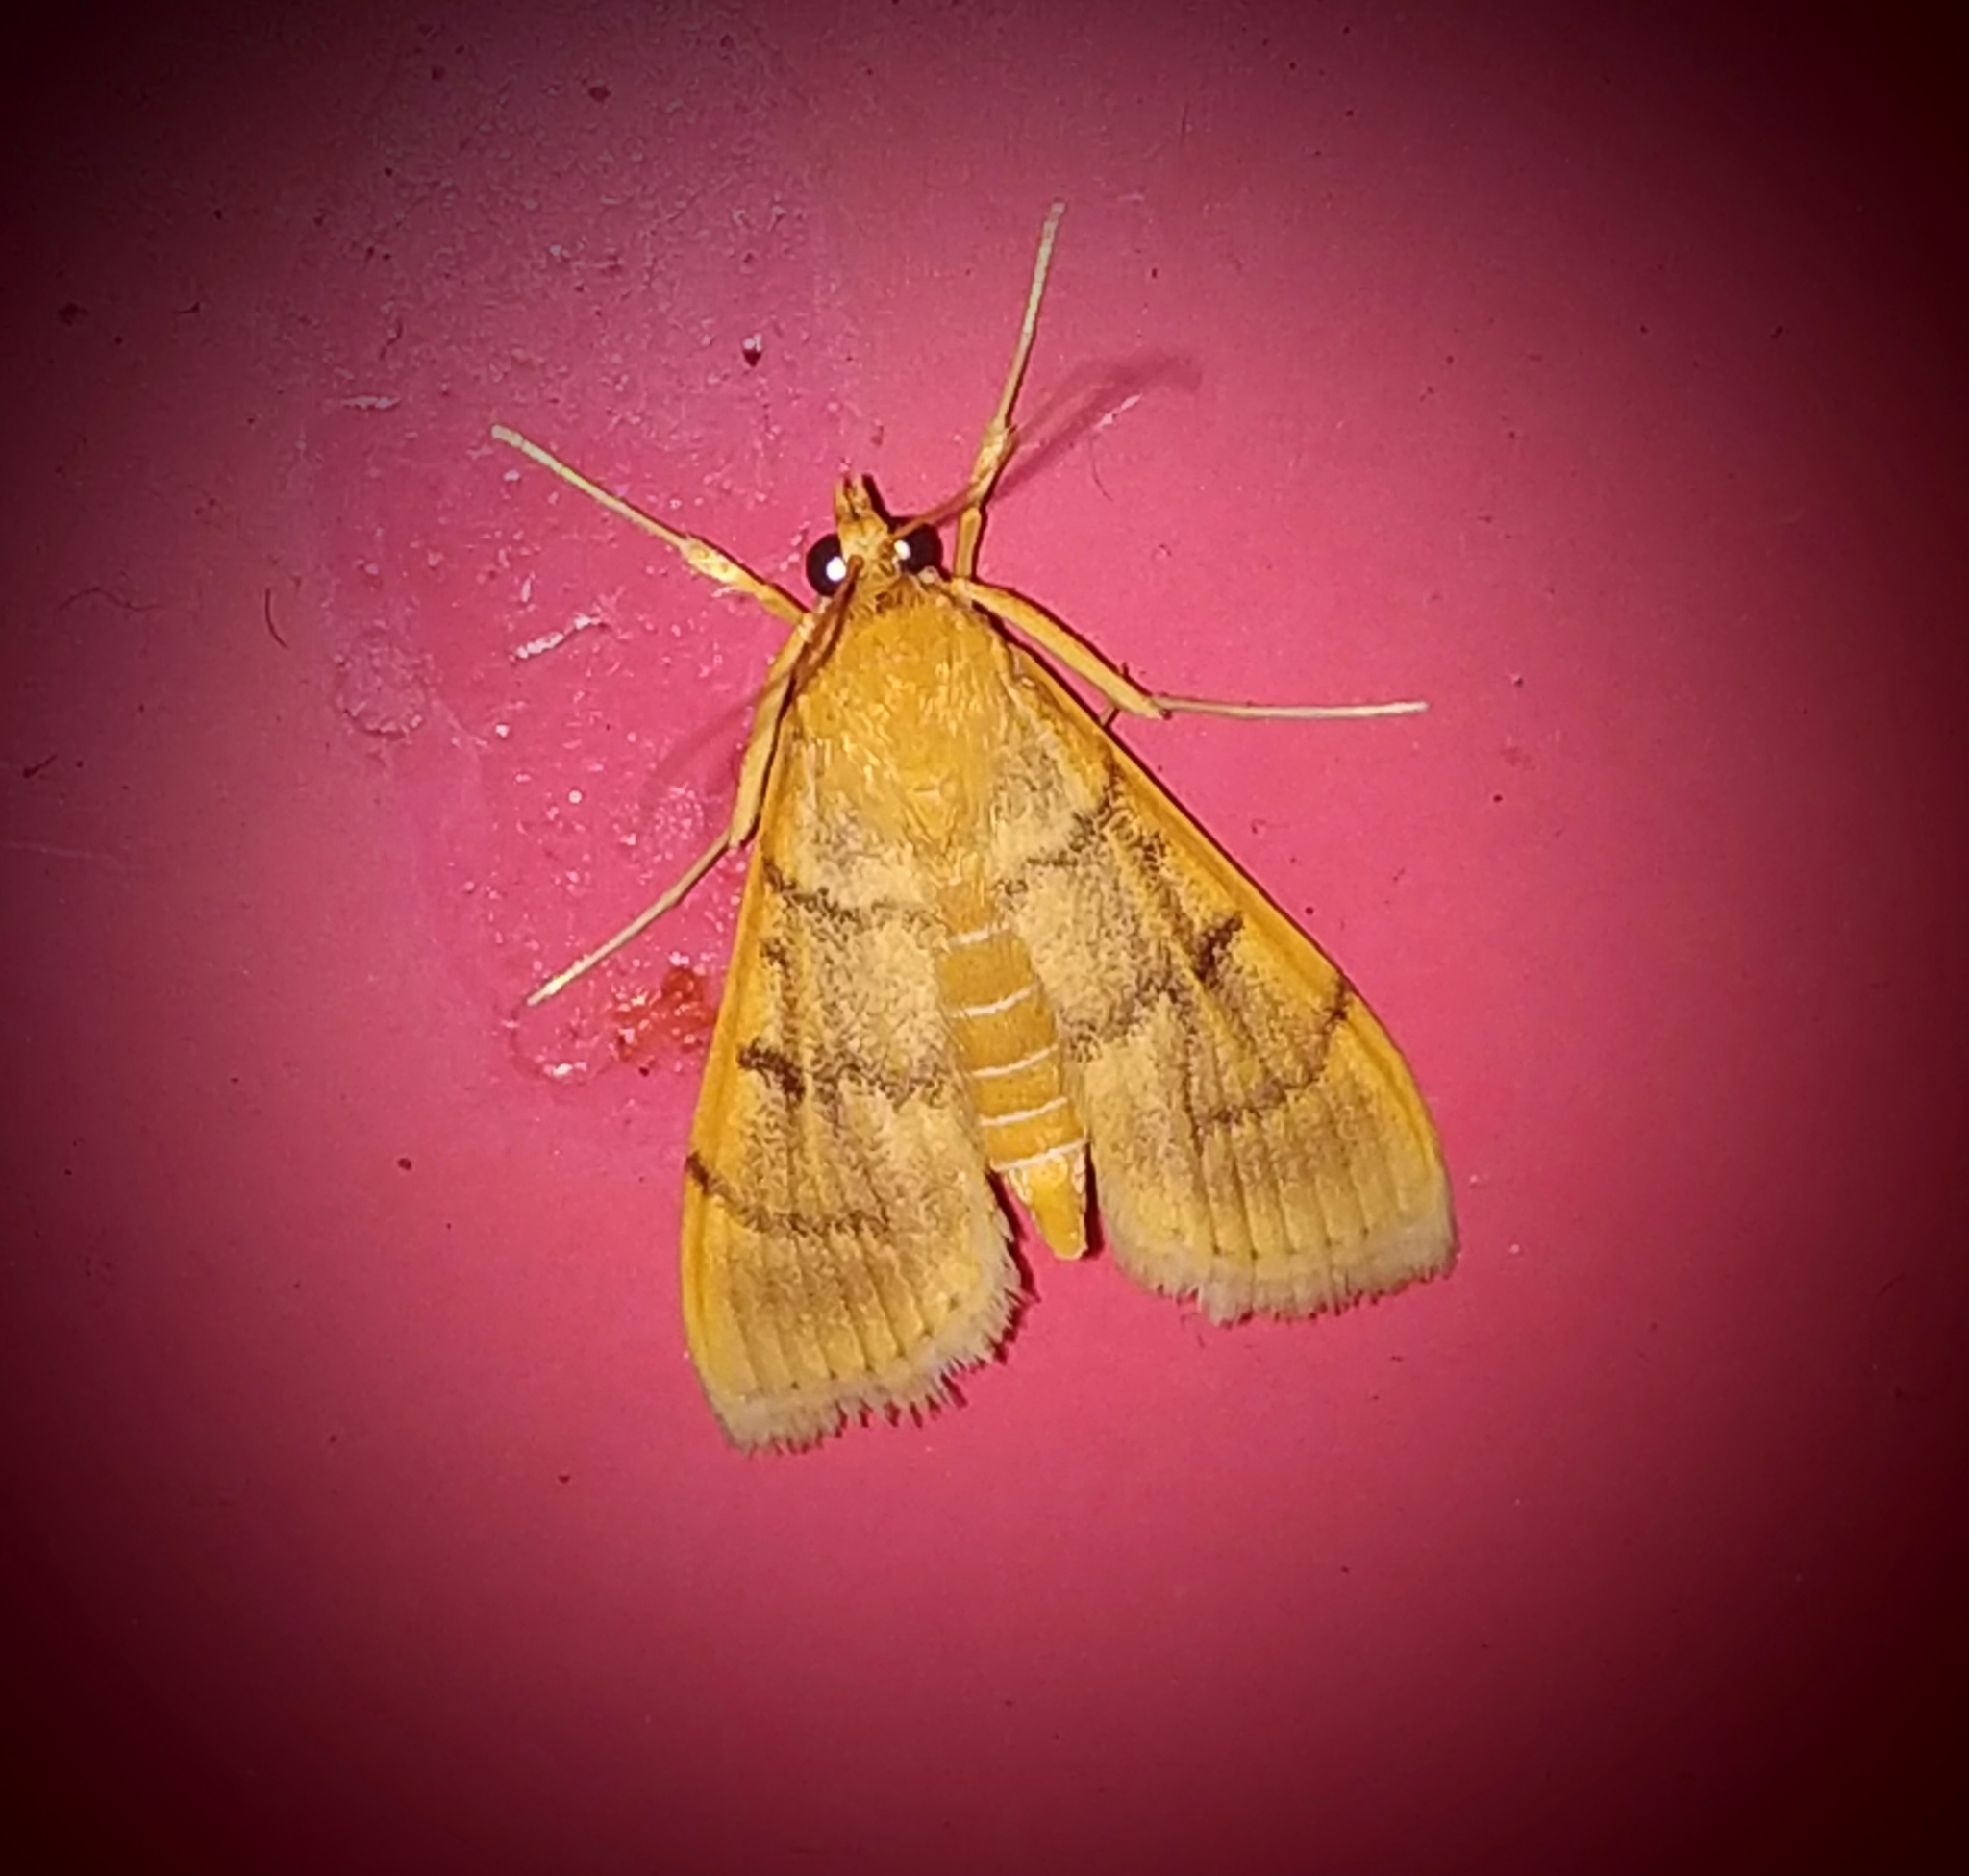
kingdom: Animalia
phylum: Arthropoda
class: Insecta
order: Lepidoptera
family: Crambidae
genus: Omiodes
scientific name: Omiodes indicata
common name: Bean-leaf webworm moth
